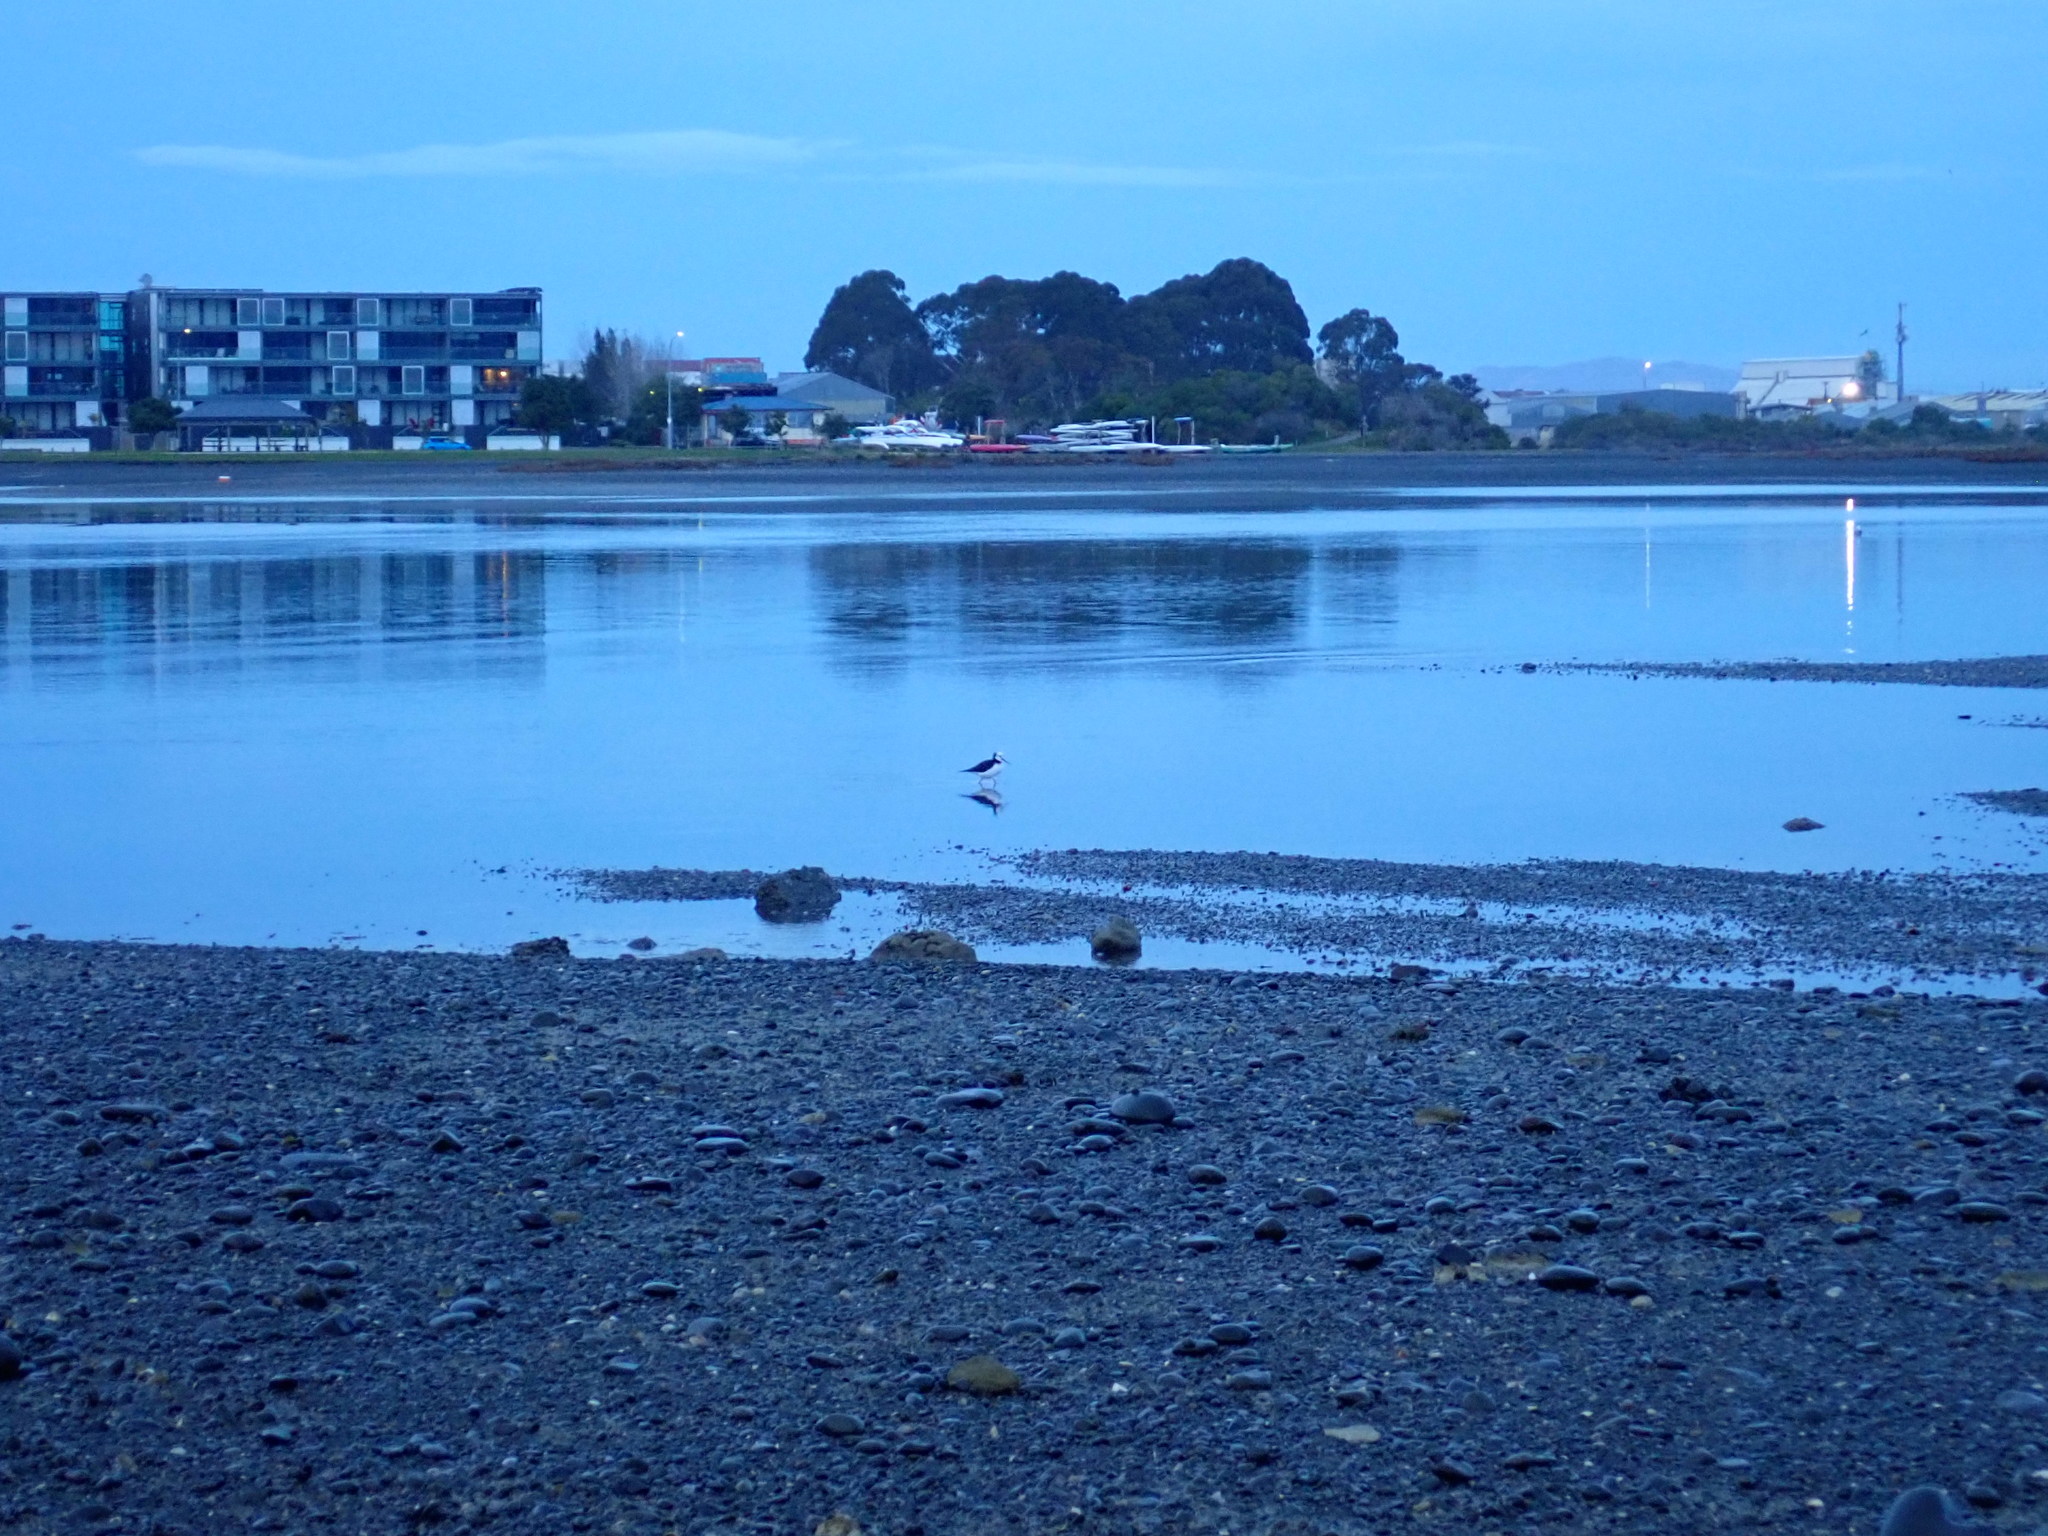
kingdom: Animalia
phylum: Chordata
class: Aves
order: Charadriiformes
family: Recurvirostridae
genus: Himantopus
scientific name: Himantopus leucocephalus
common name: White-headed stilt
